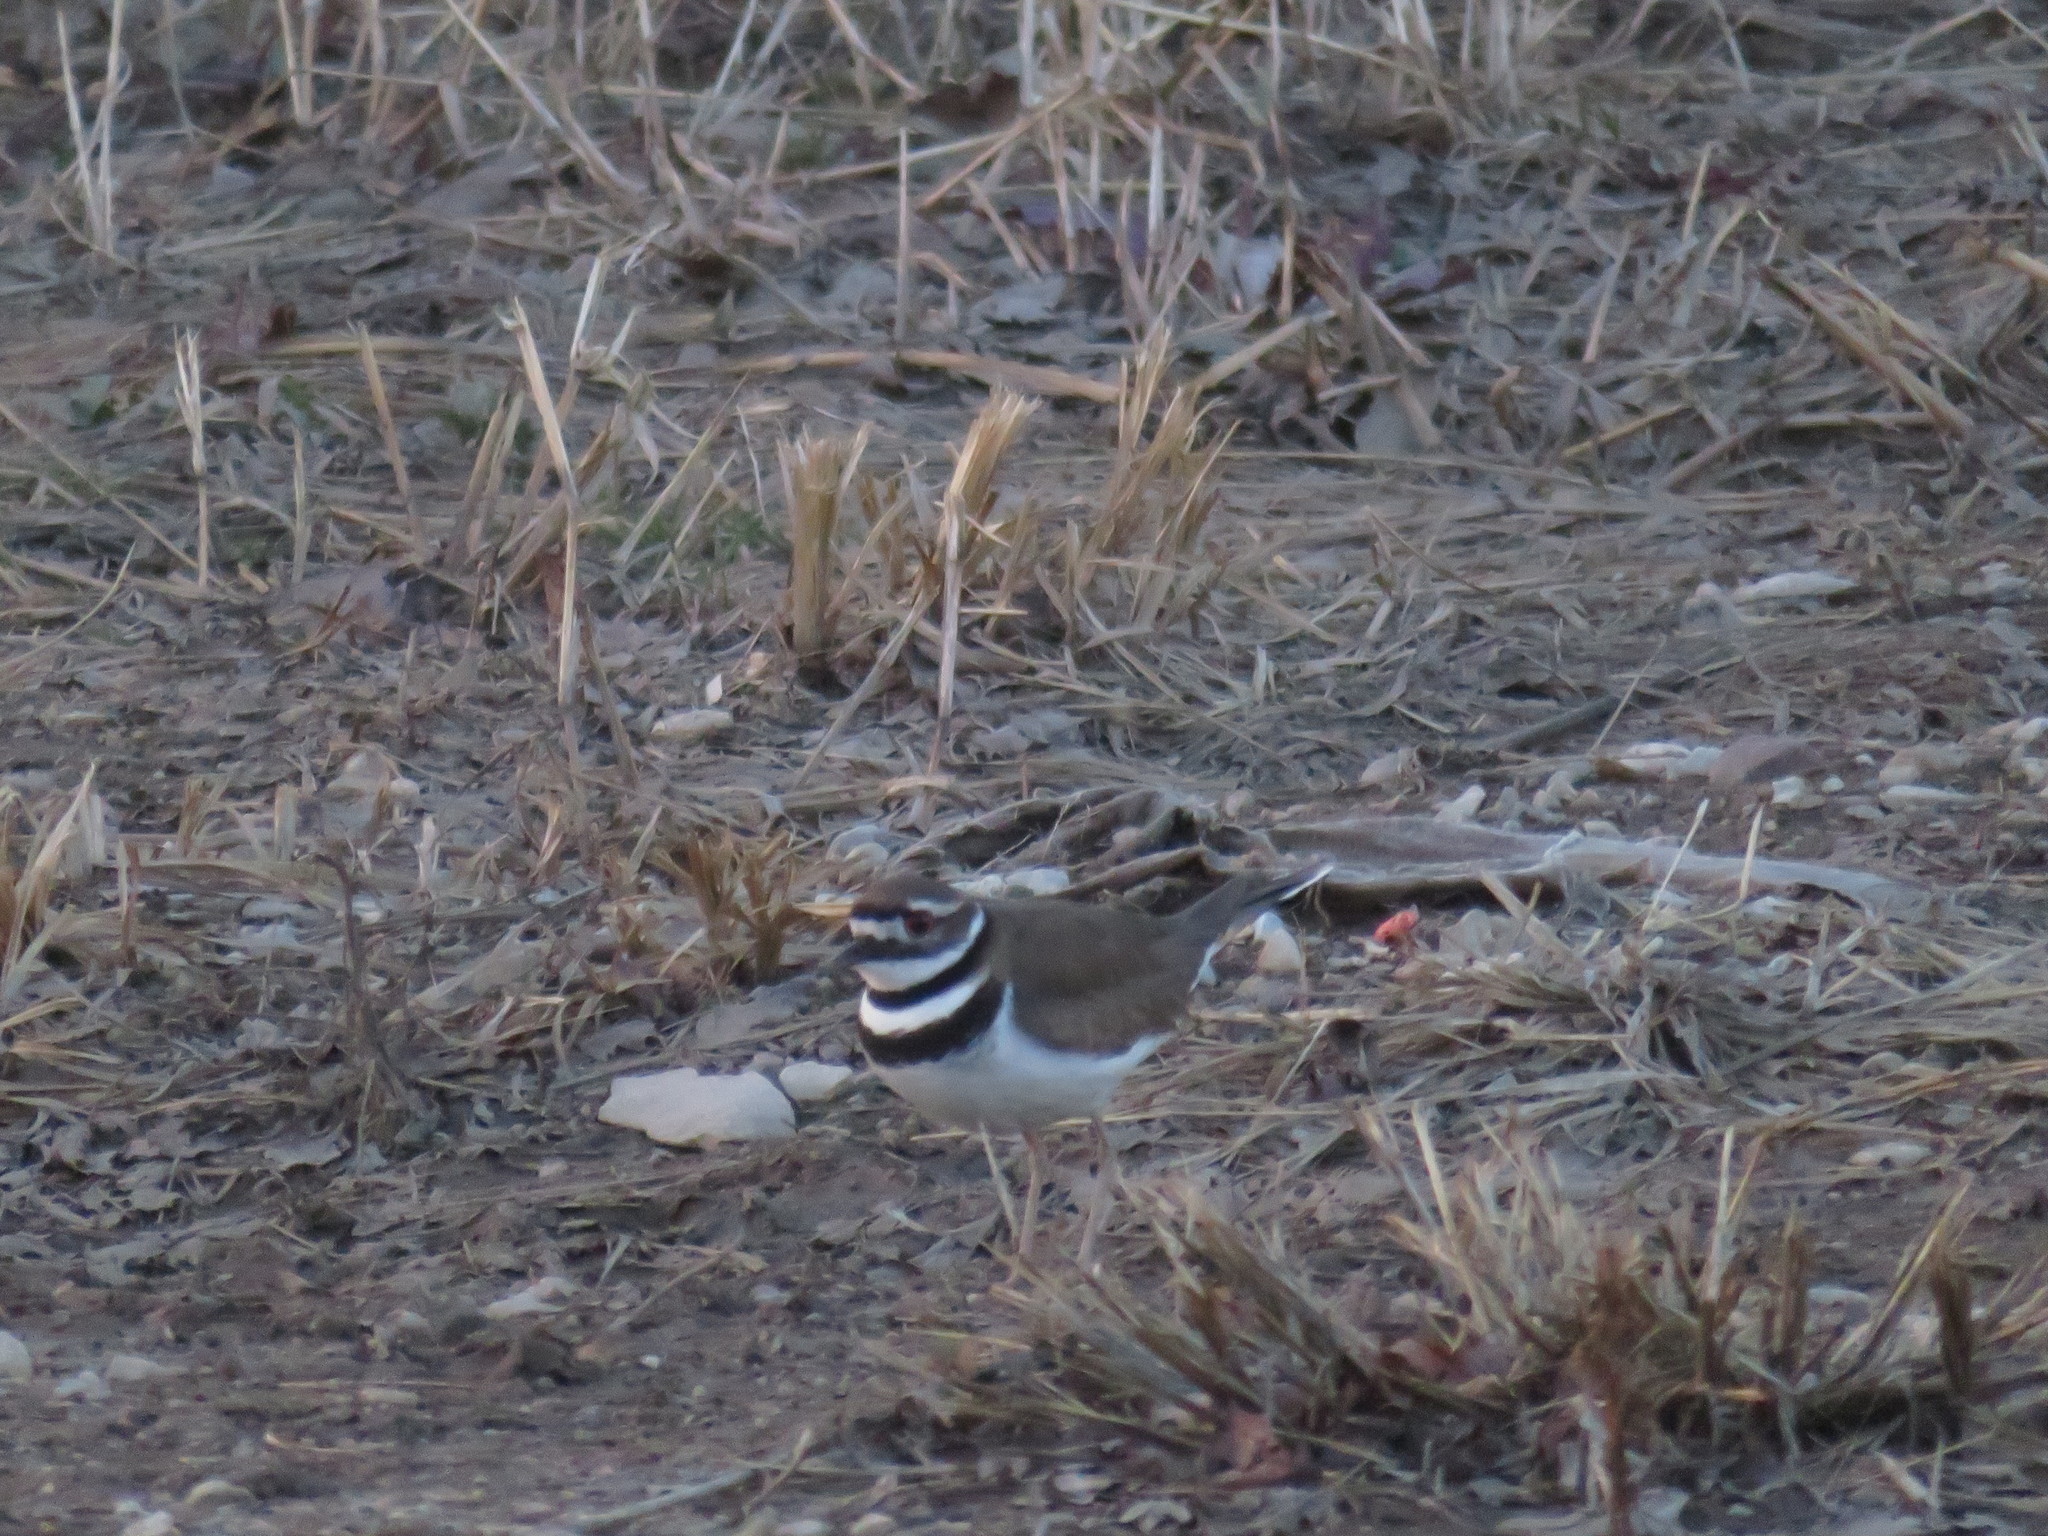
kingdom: Animalia
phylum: Chordata
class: Aves
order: Charadriiformes
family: Charadriidae
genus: Charadrius
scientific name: Charadrius vociferus
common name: Killdeer
